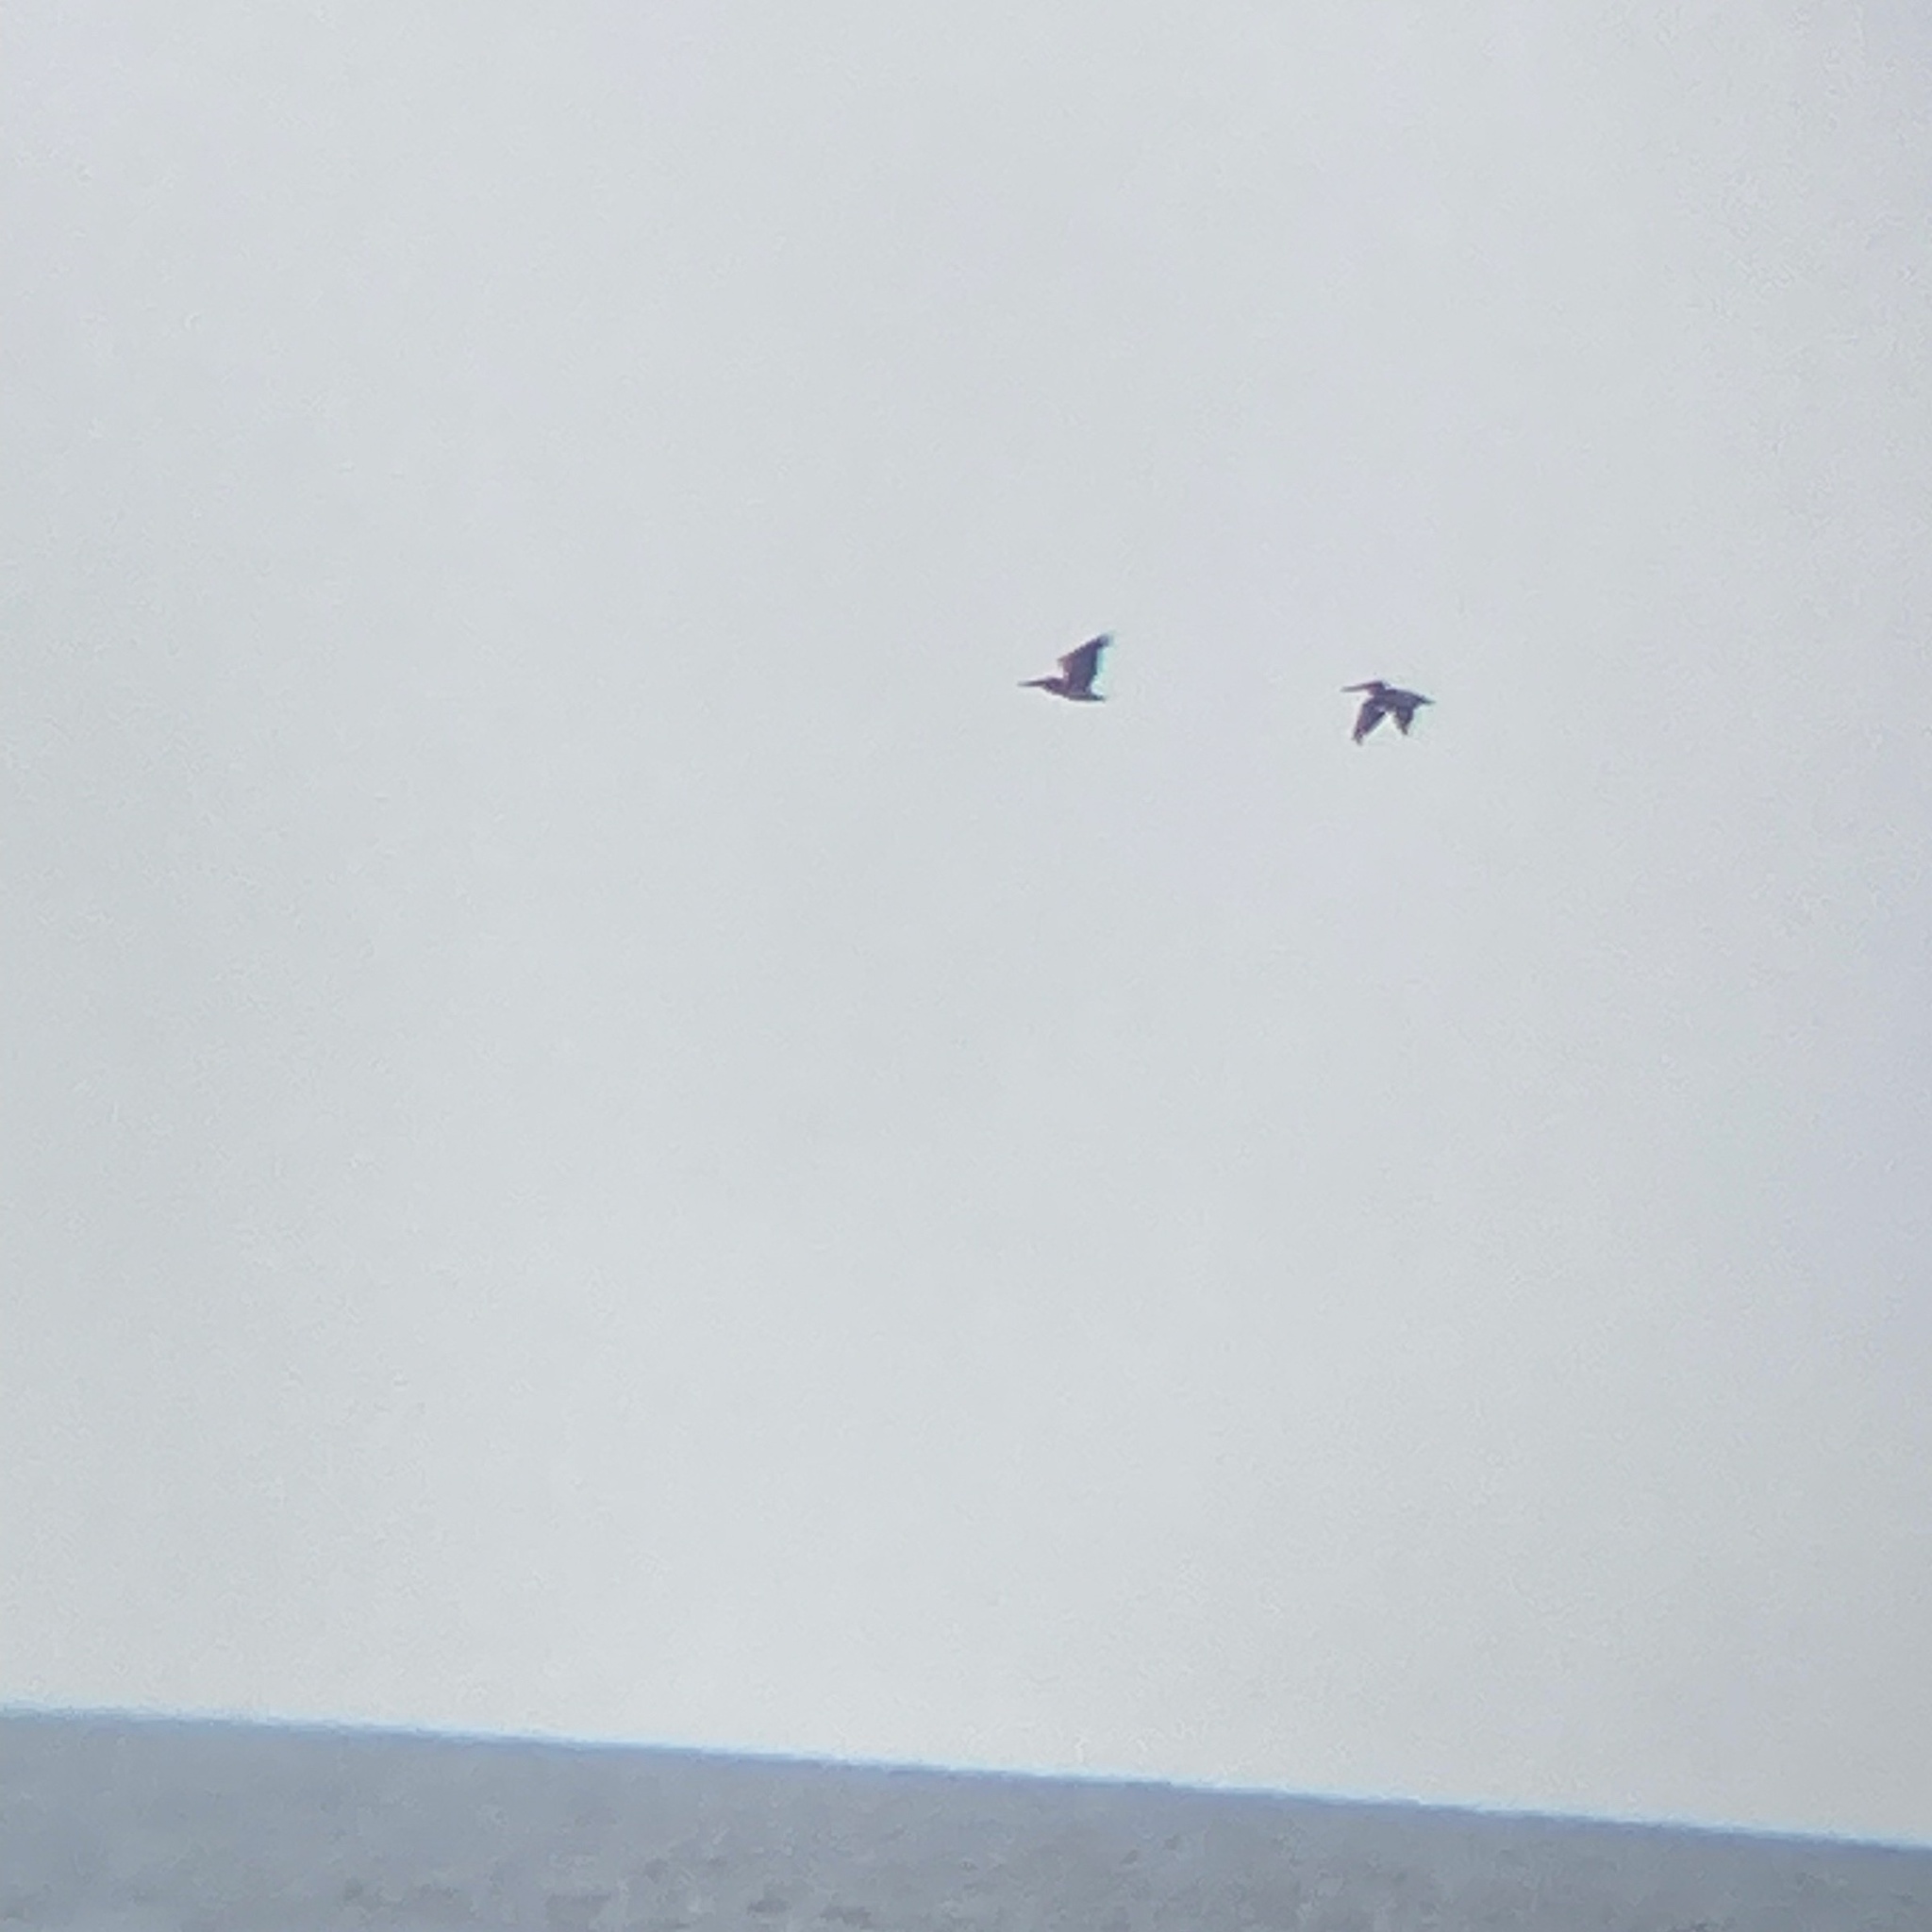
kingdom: Animalia
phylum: Chordata
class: Aves
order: Pelecaniformes
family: Pelecanidae
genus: Pelecanus
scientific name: Pelecanus occidentalis
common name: Brown pelican
